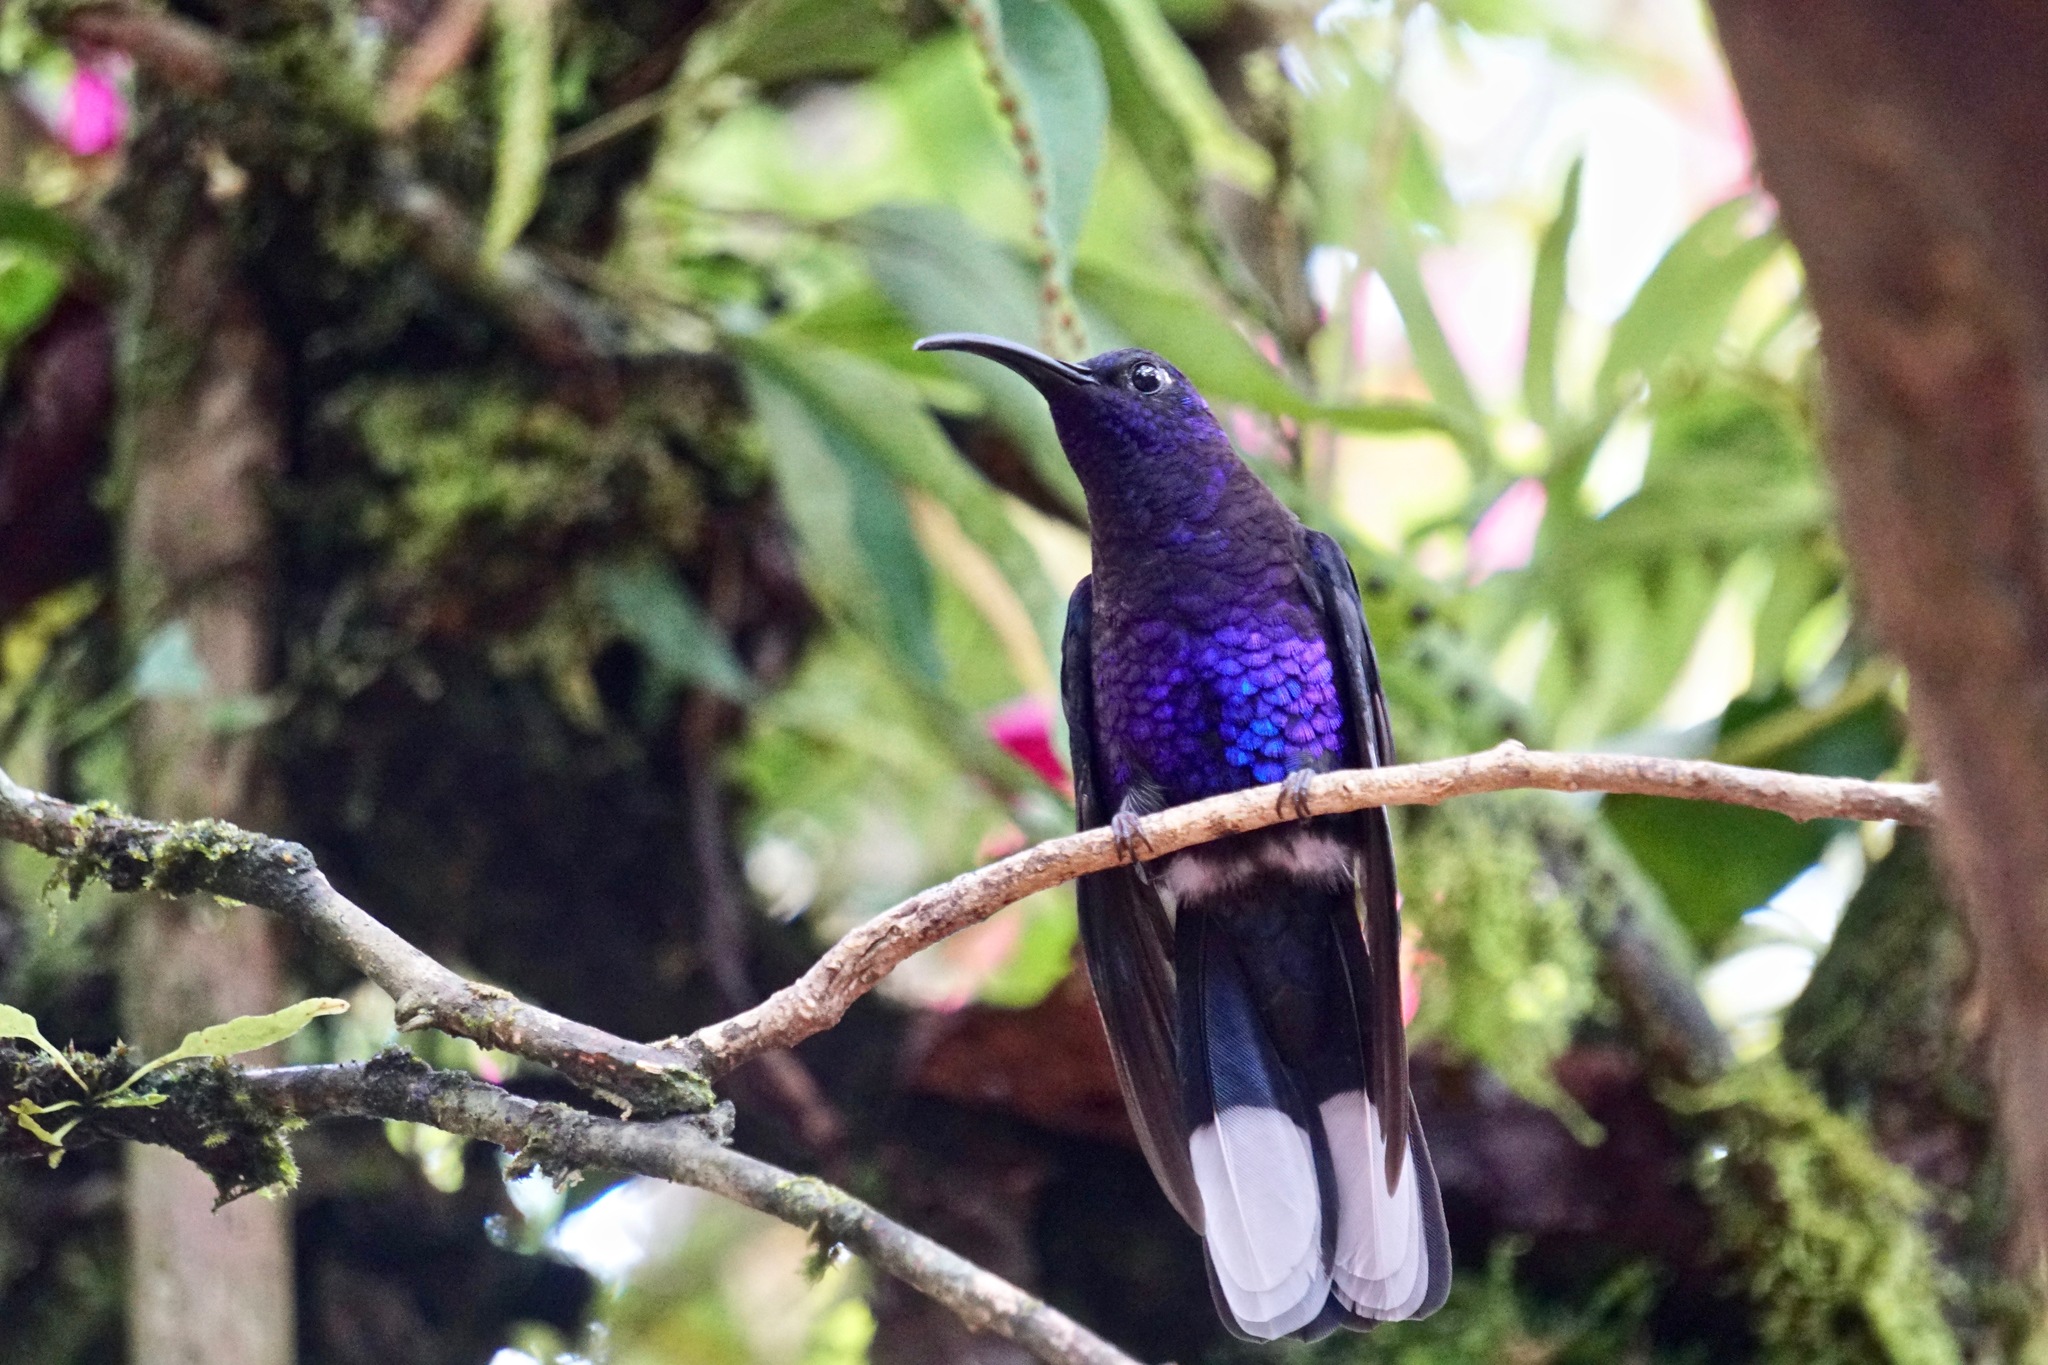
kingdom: Animalia
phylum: Chordata
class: Aves
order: Apodiformes
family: Trochilidae
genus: Campylopterus
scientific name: Campylopterus hemileucurus
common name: Violet sabrewing
